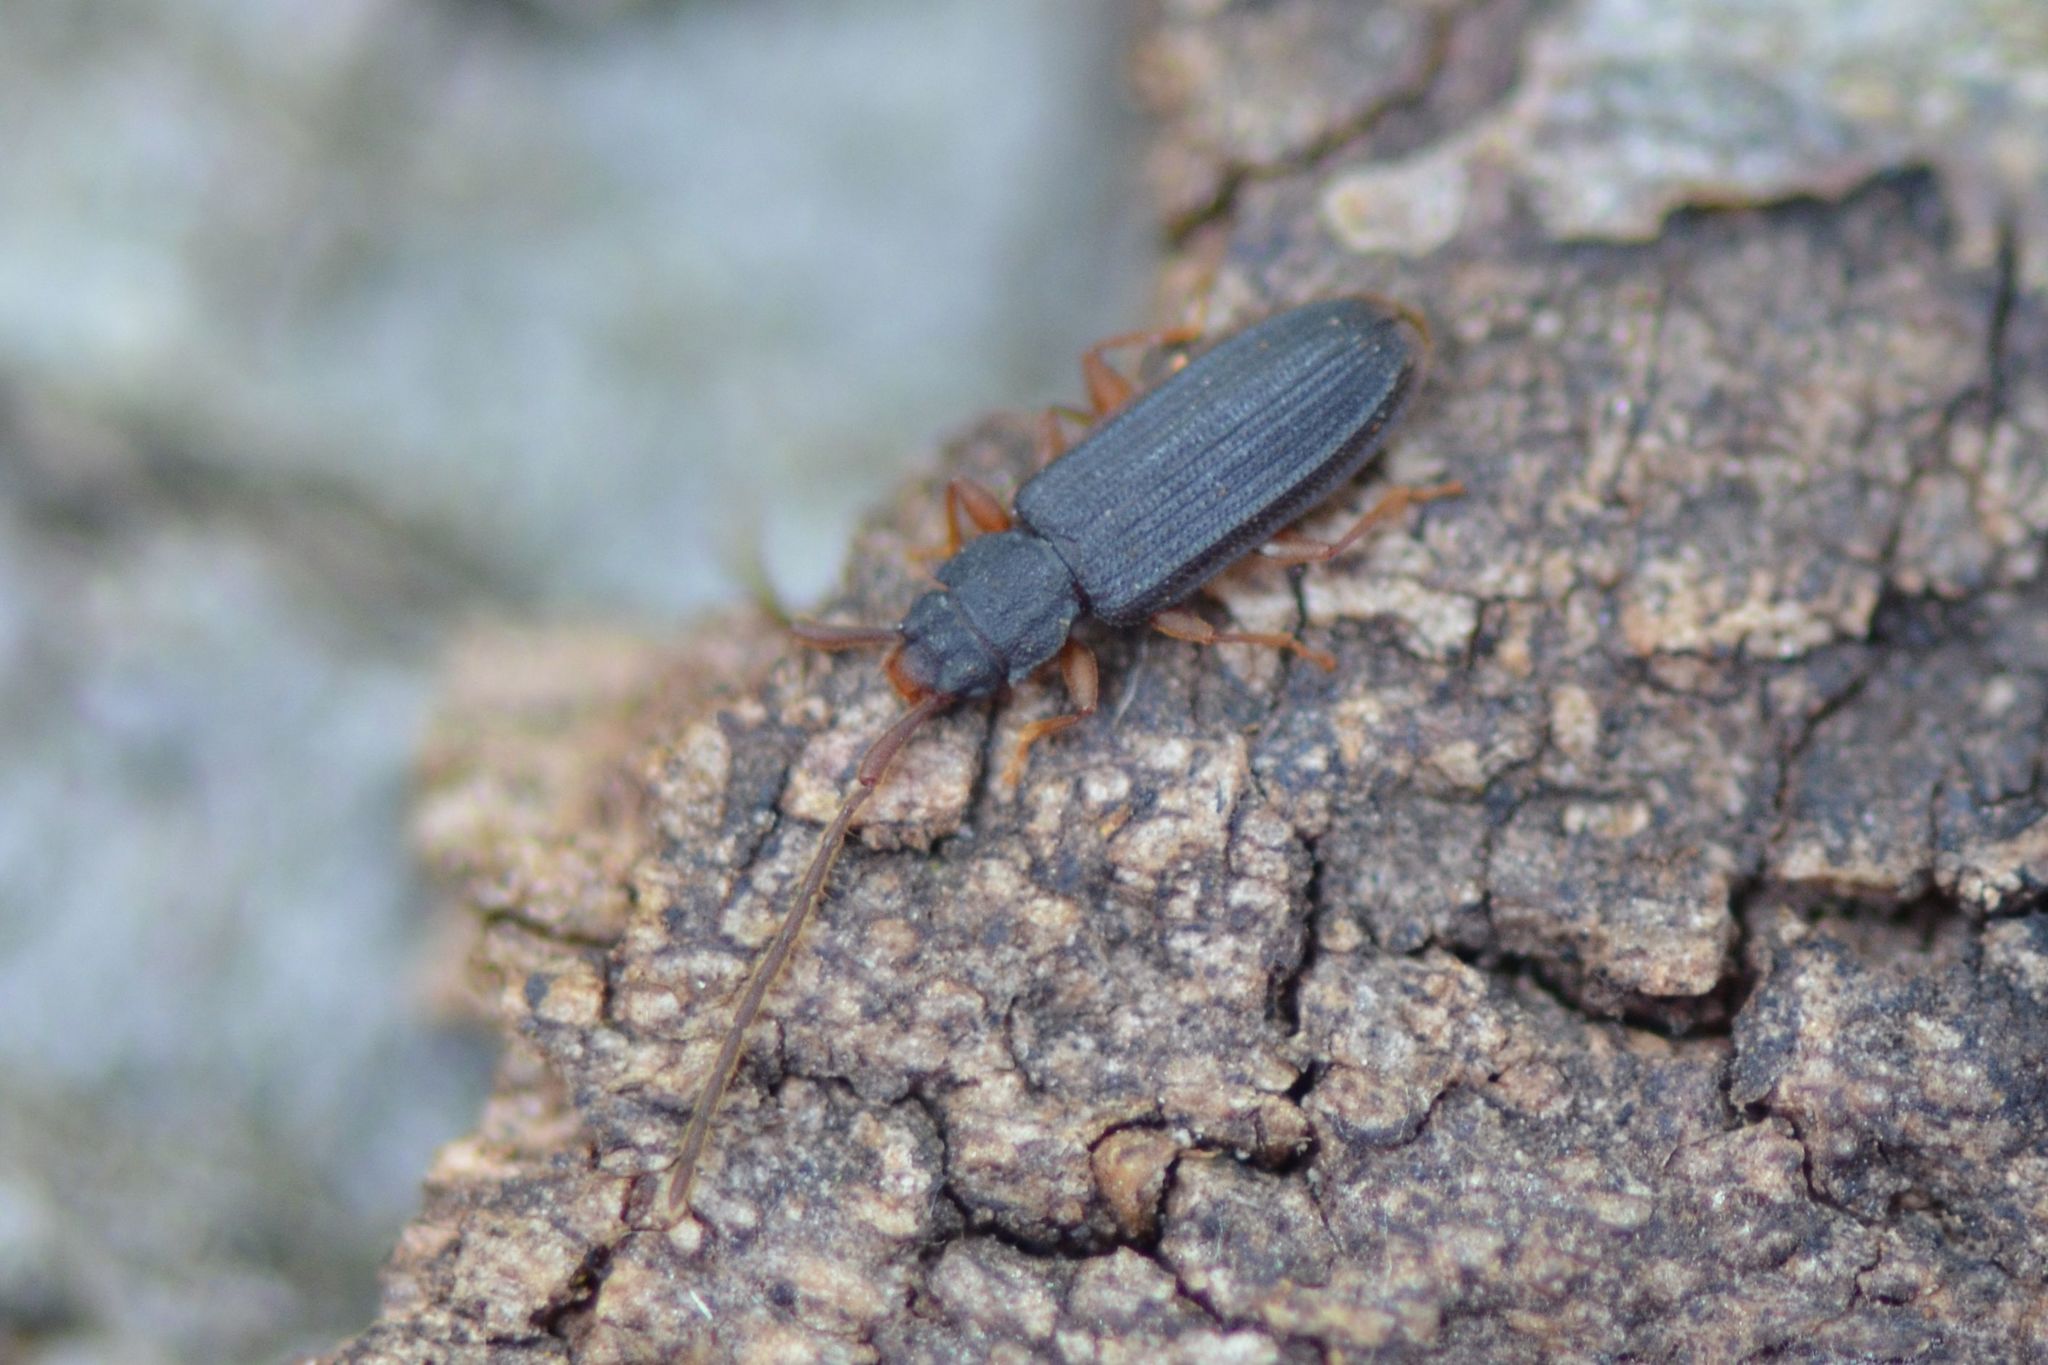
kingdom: Animalia
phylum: Arthropoda
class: Insecta
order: Coleoptera
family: Silvanidae
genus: Uleiota
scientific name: Uleiota planatus
